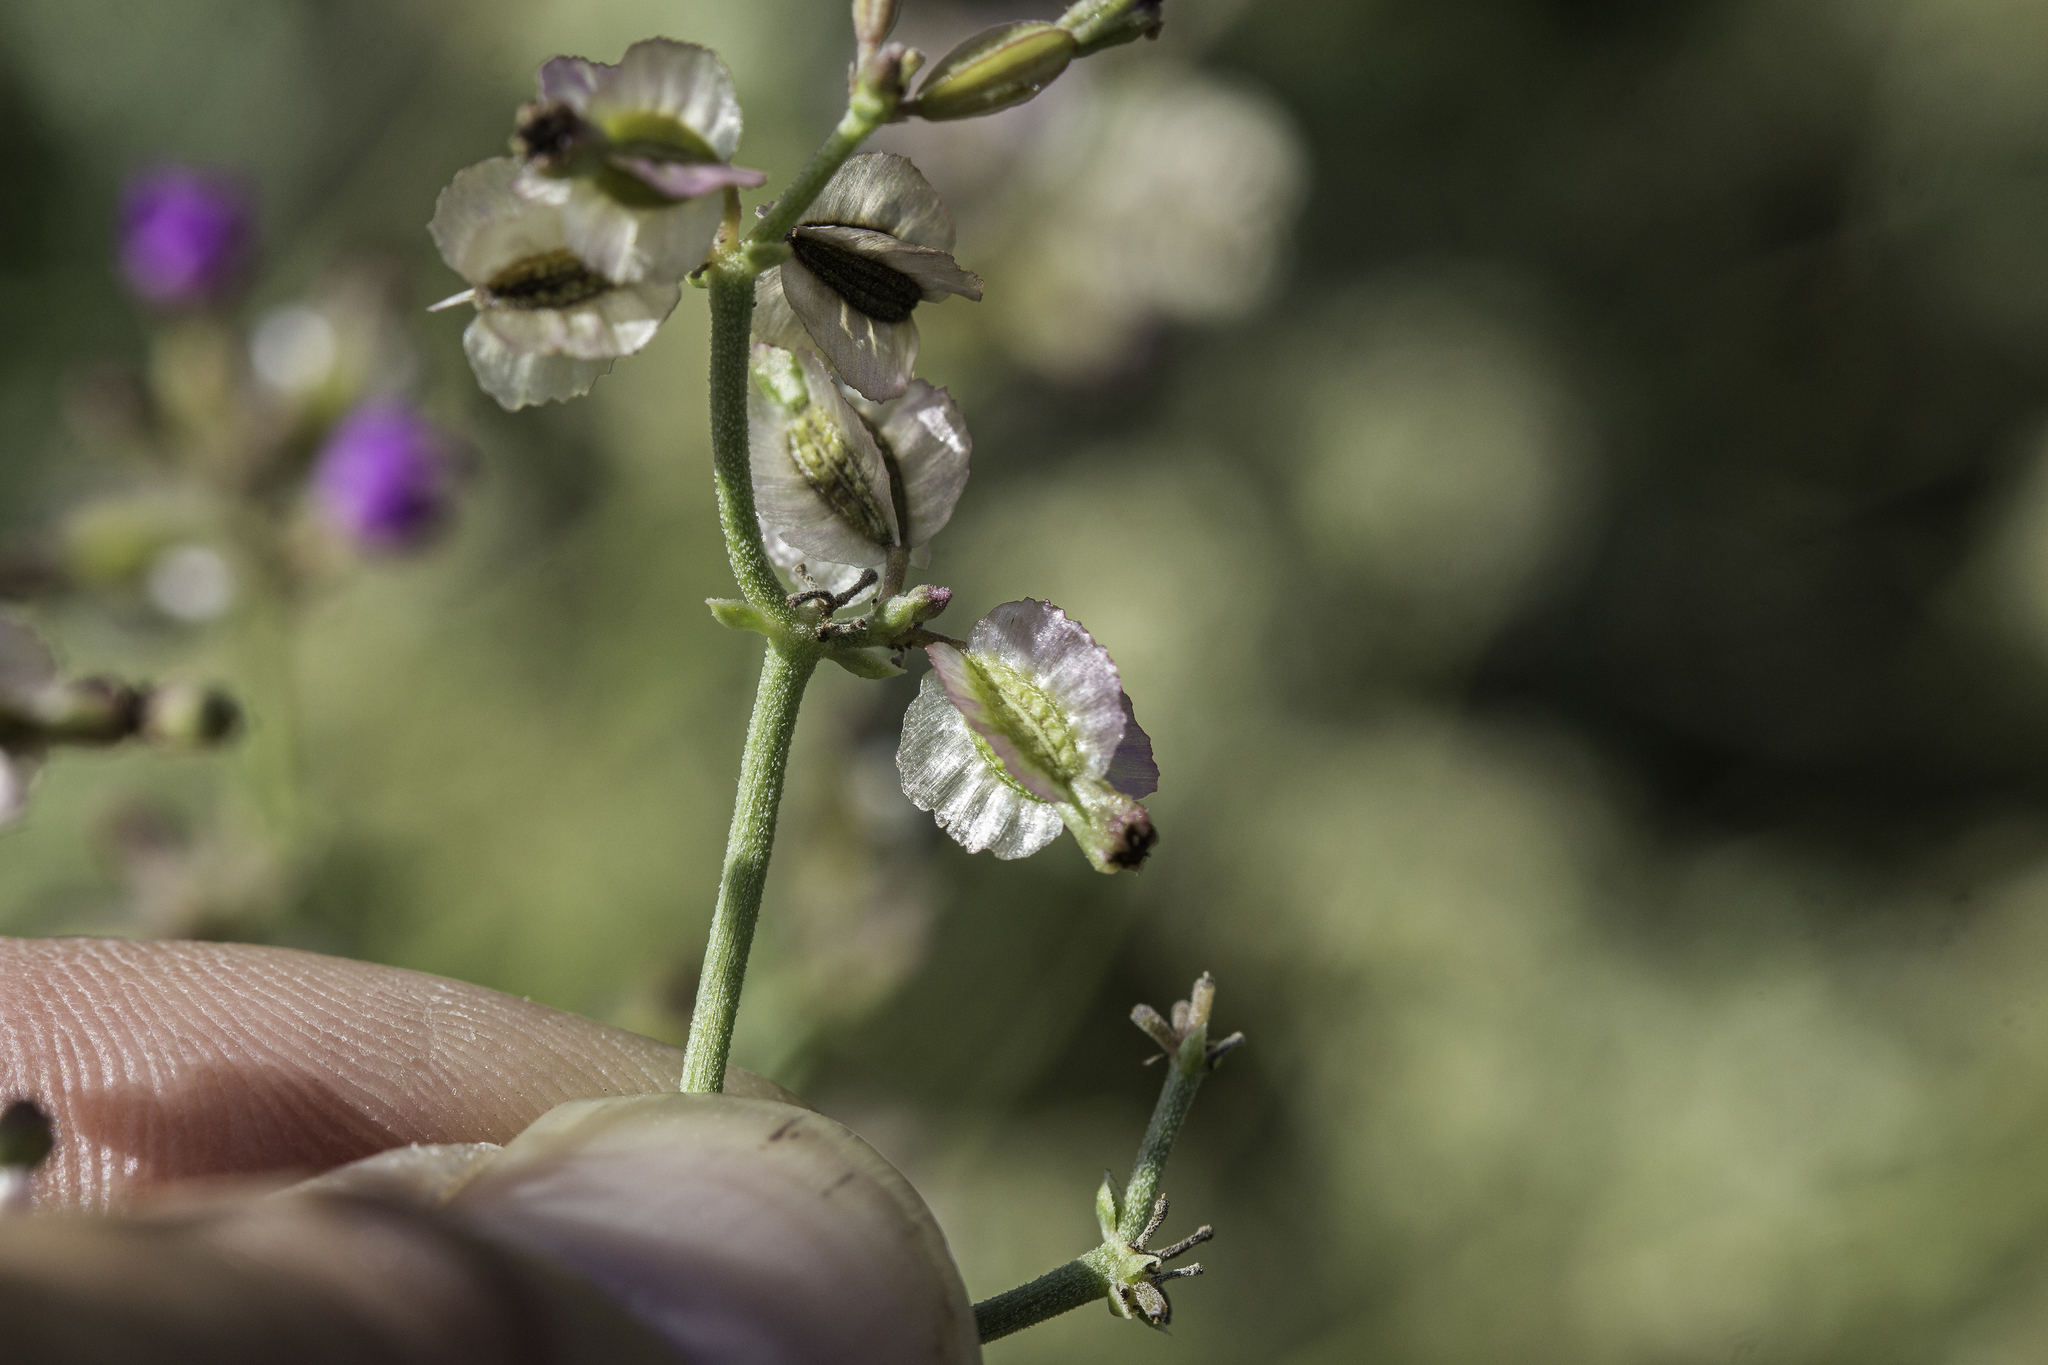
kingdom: Plantae
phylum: Tracheophyta
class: Magnoliopsida
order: Caryophyllales
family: Nyctaginaceae
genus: Acleisanthes
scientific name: Acleisanthes chenopodioides
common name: Goosefoot moonpod
